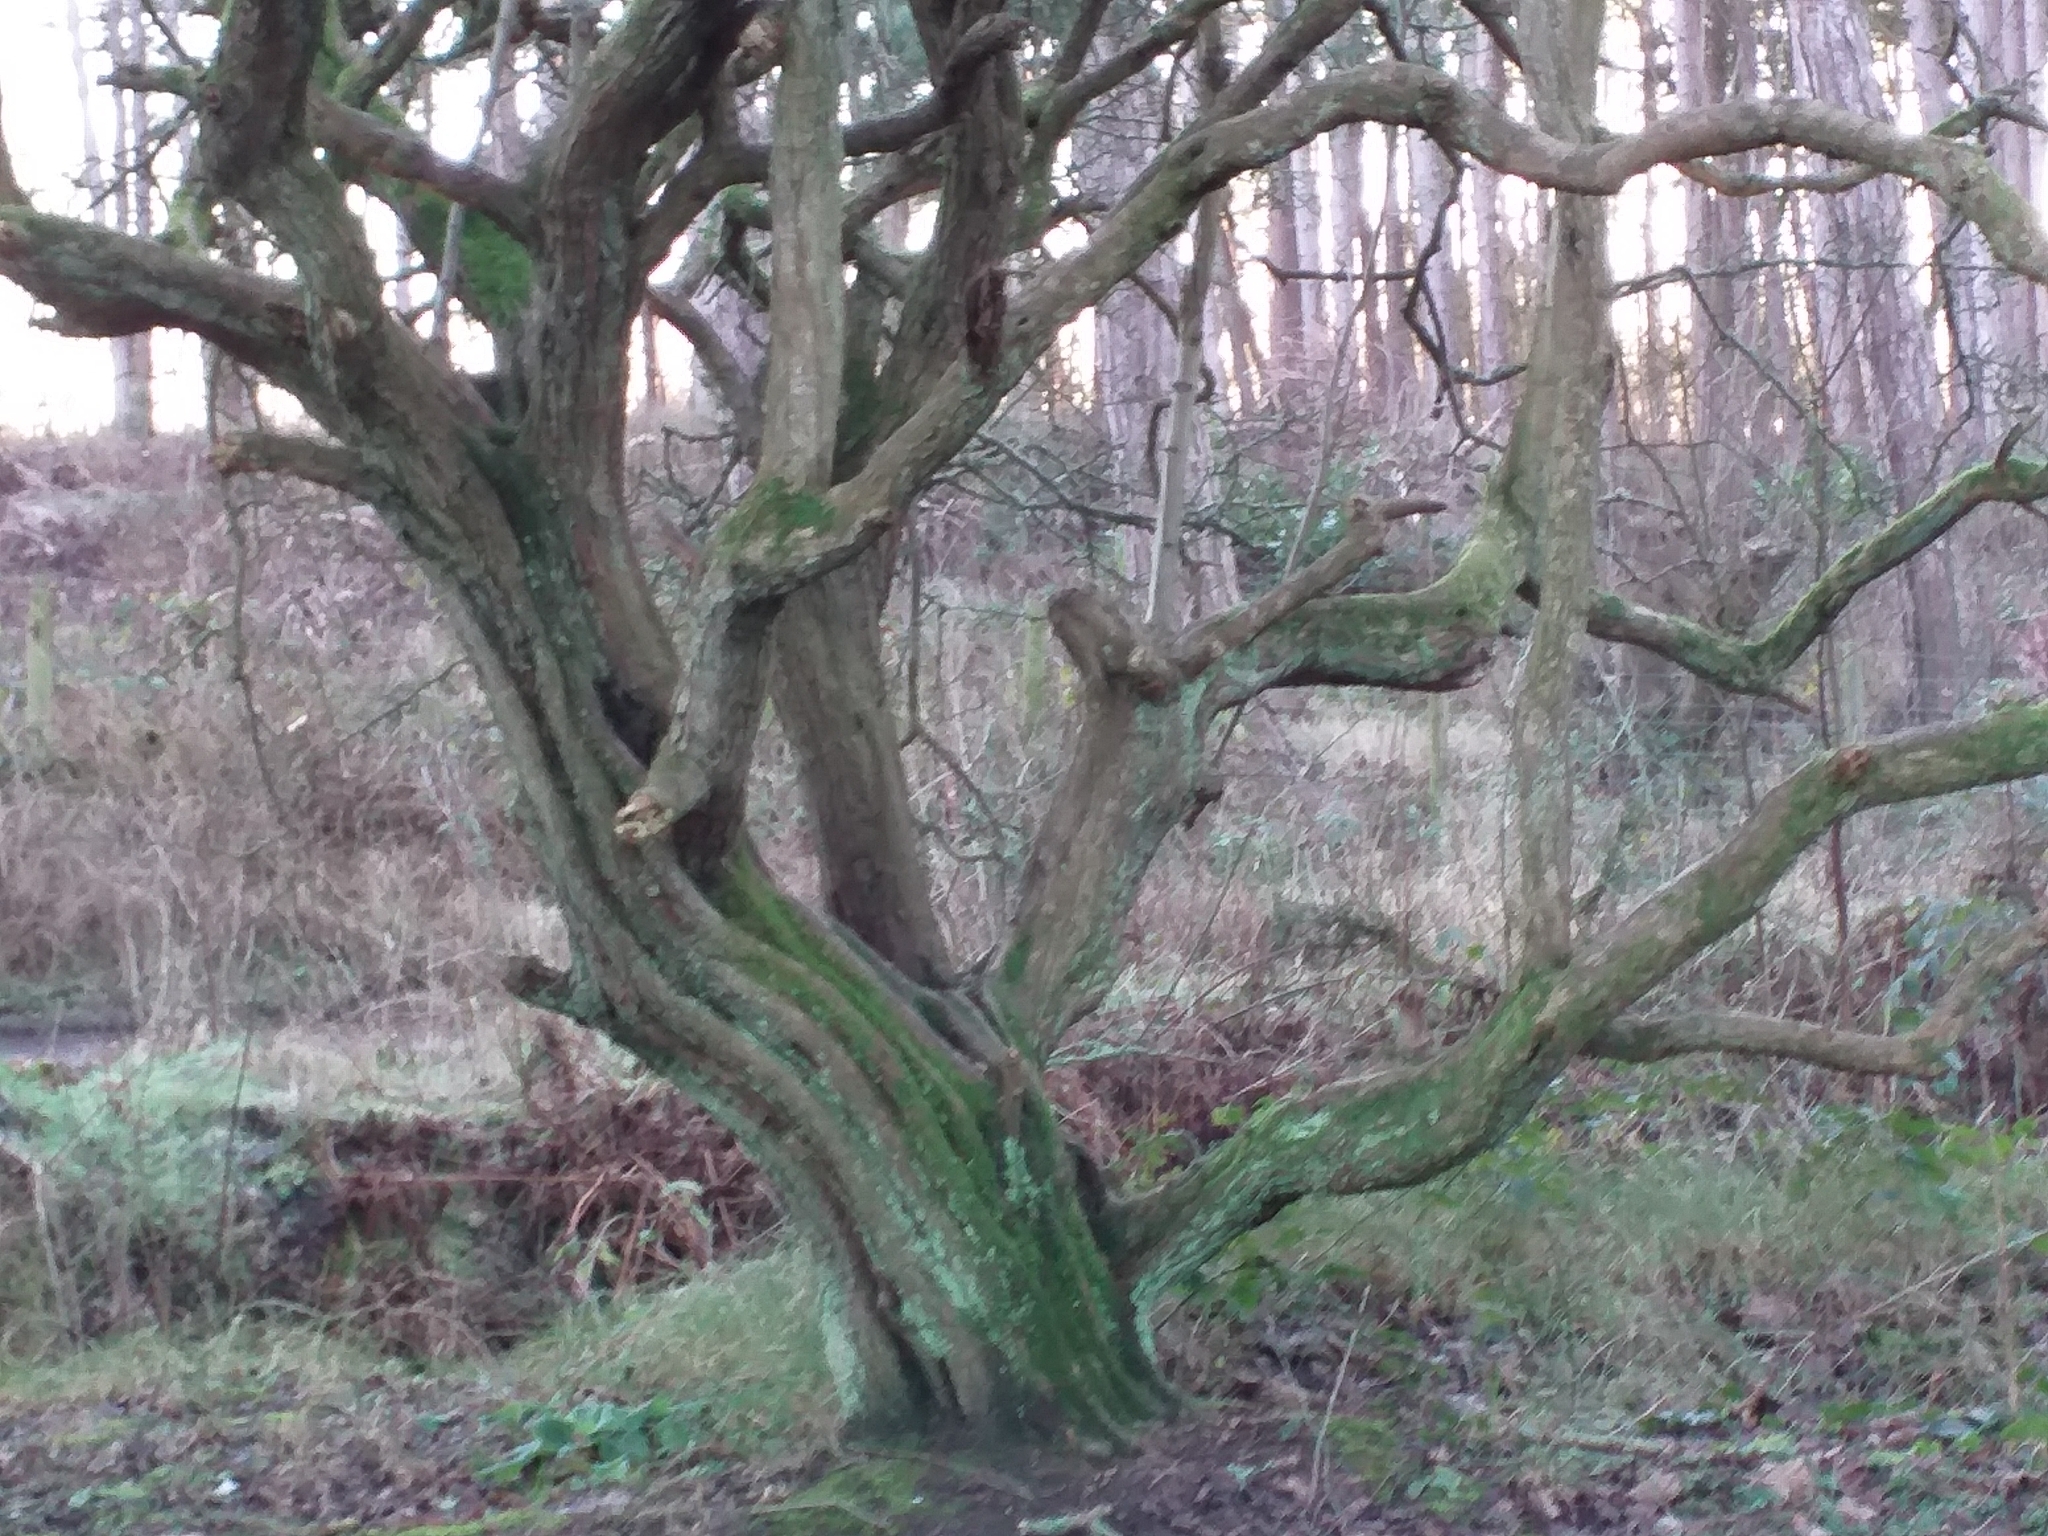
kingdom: Plantae
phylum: Tracheophyta
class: Magnoliopsida
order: Rosales
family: Rosaceae
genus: Crataegus
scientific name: Crataegus monogyna
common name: Hawthorn
